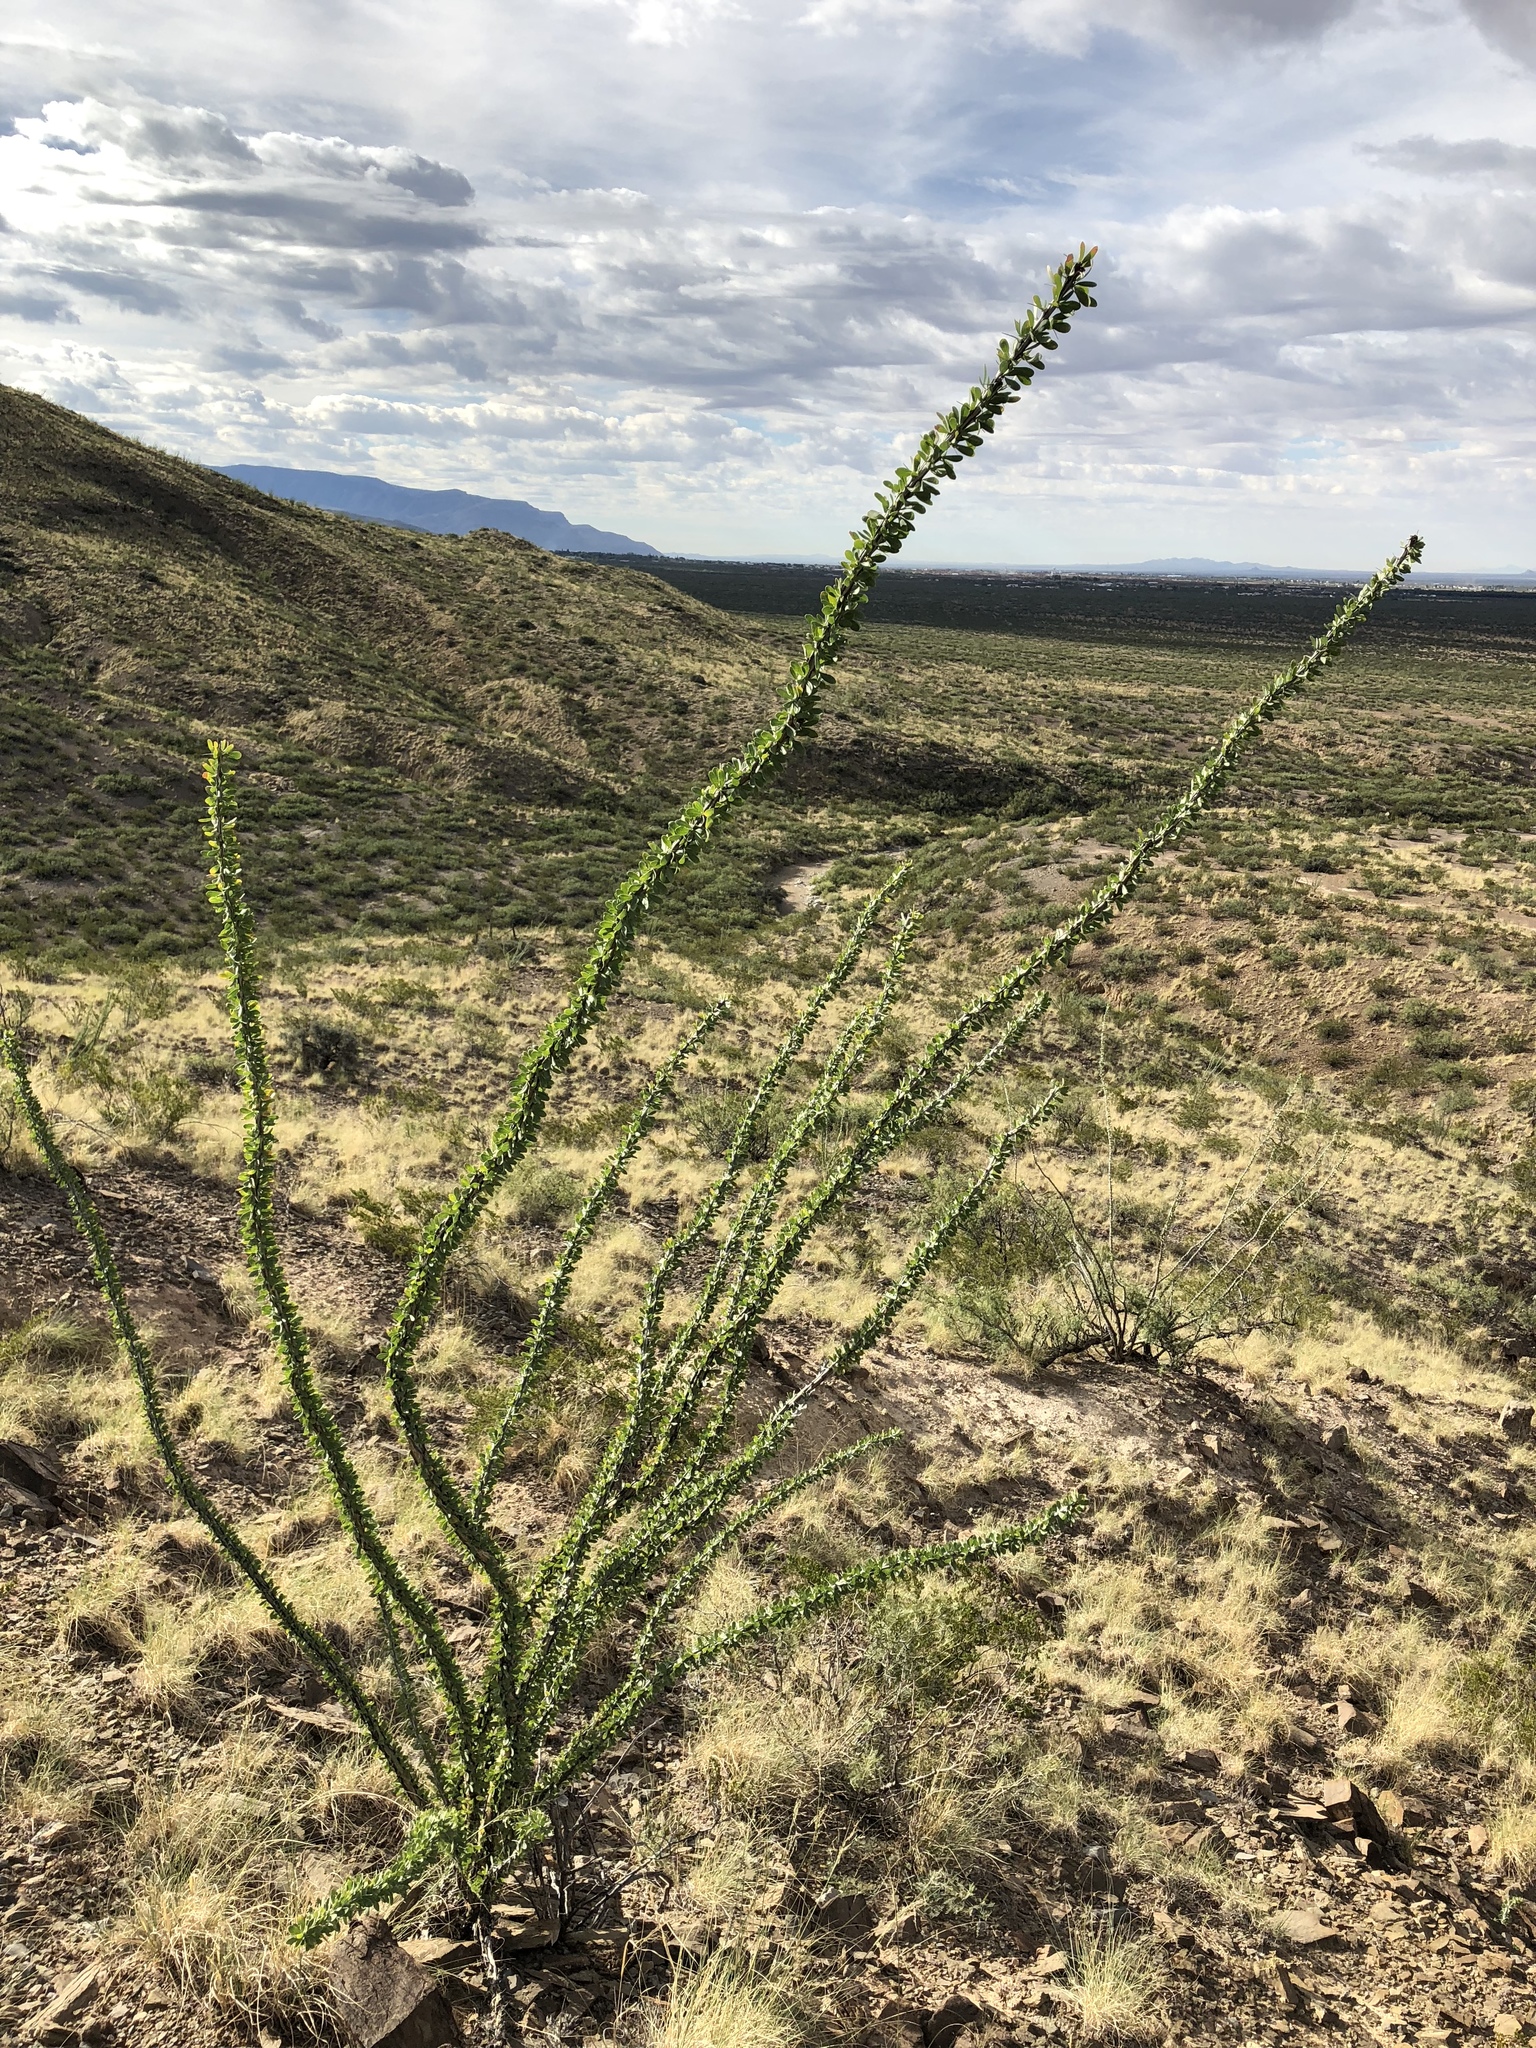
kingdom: Plantae
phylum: Tracheophyta
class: Magnoliopsida
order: Ericales
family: Fouquieriaceae
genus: Fouquieria
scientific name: Fouquieria splendens
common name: Vine-cactus
